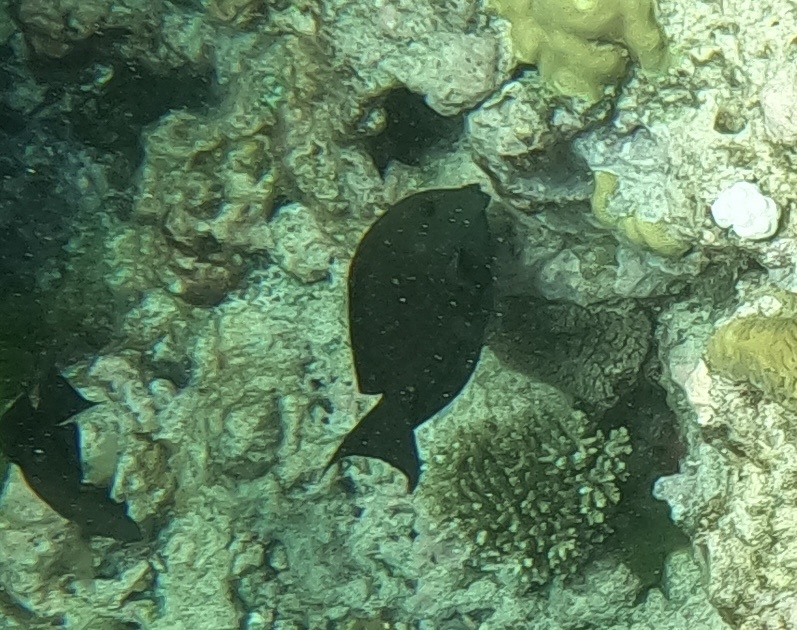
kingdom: Animalia
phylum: Chordata
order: Perciformes
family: Acanthuridae
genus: Ctenochaetus
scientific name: Ctenochaetus striatus
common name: Bristle-toothed surgeonfish
